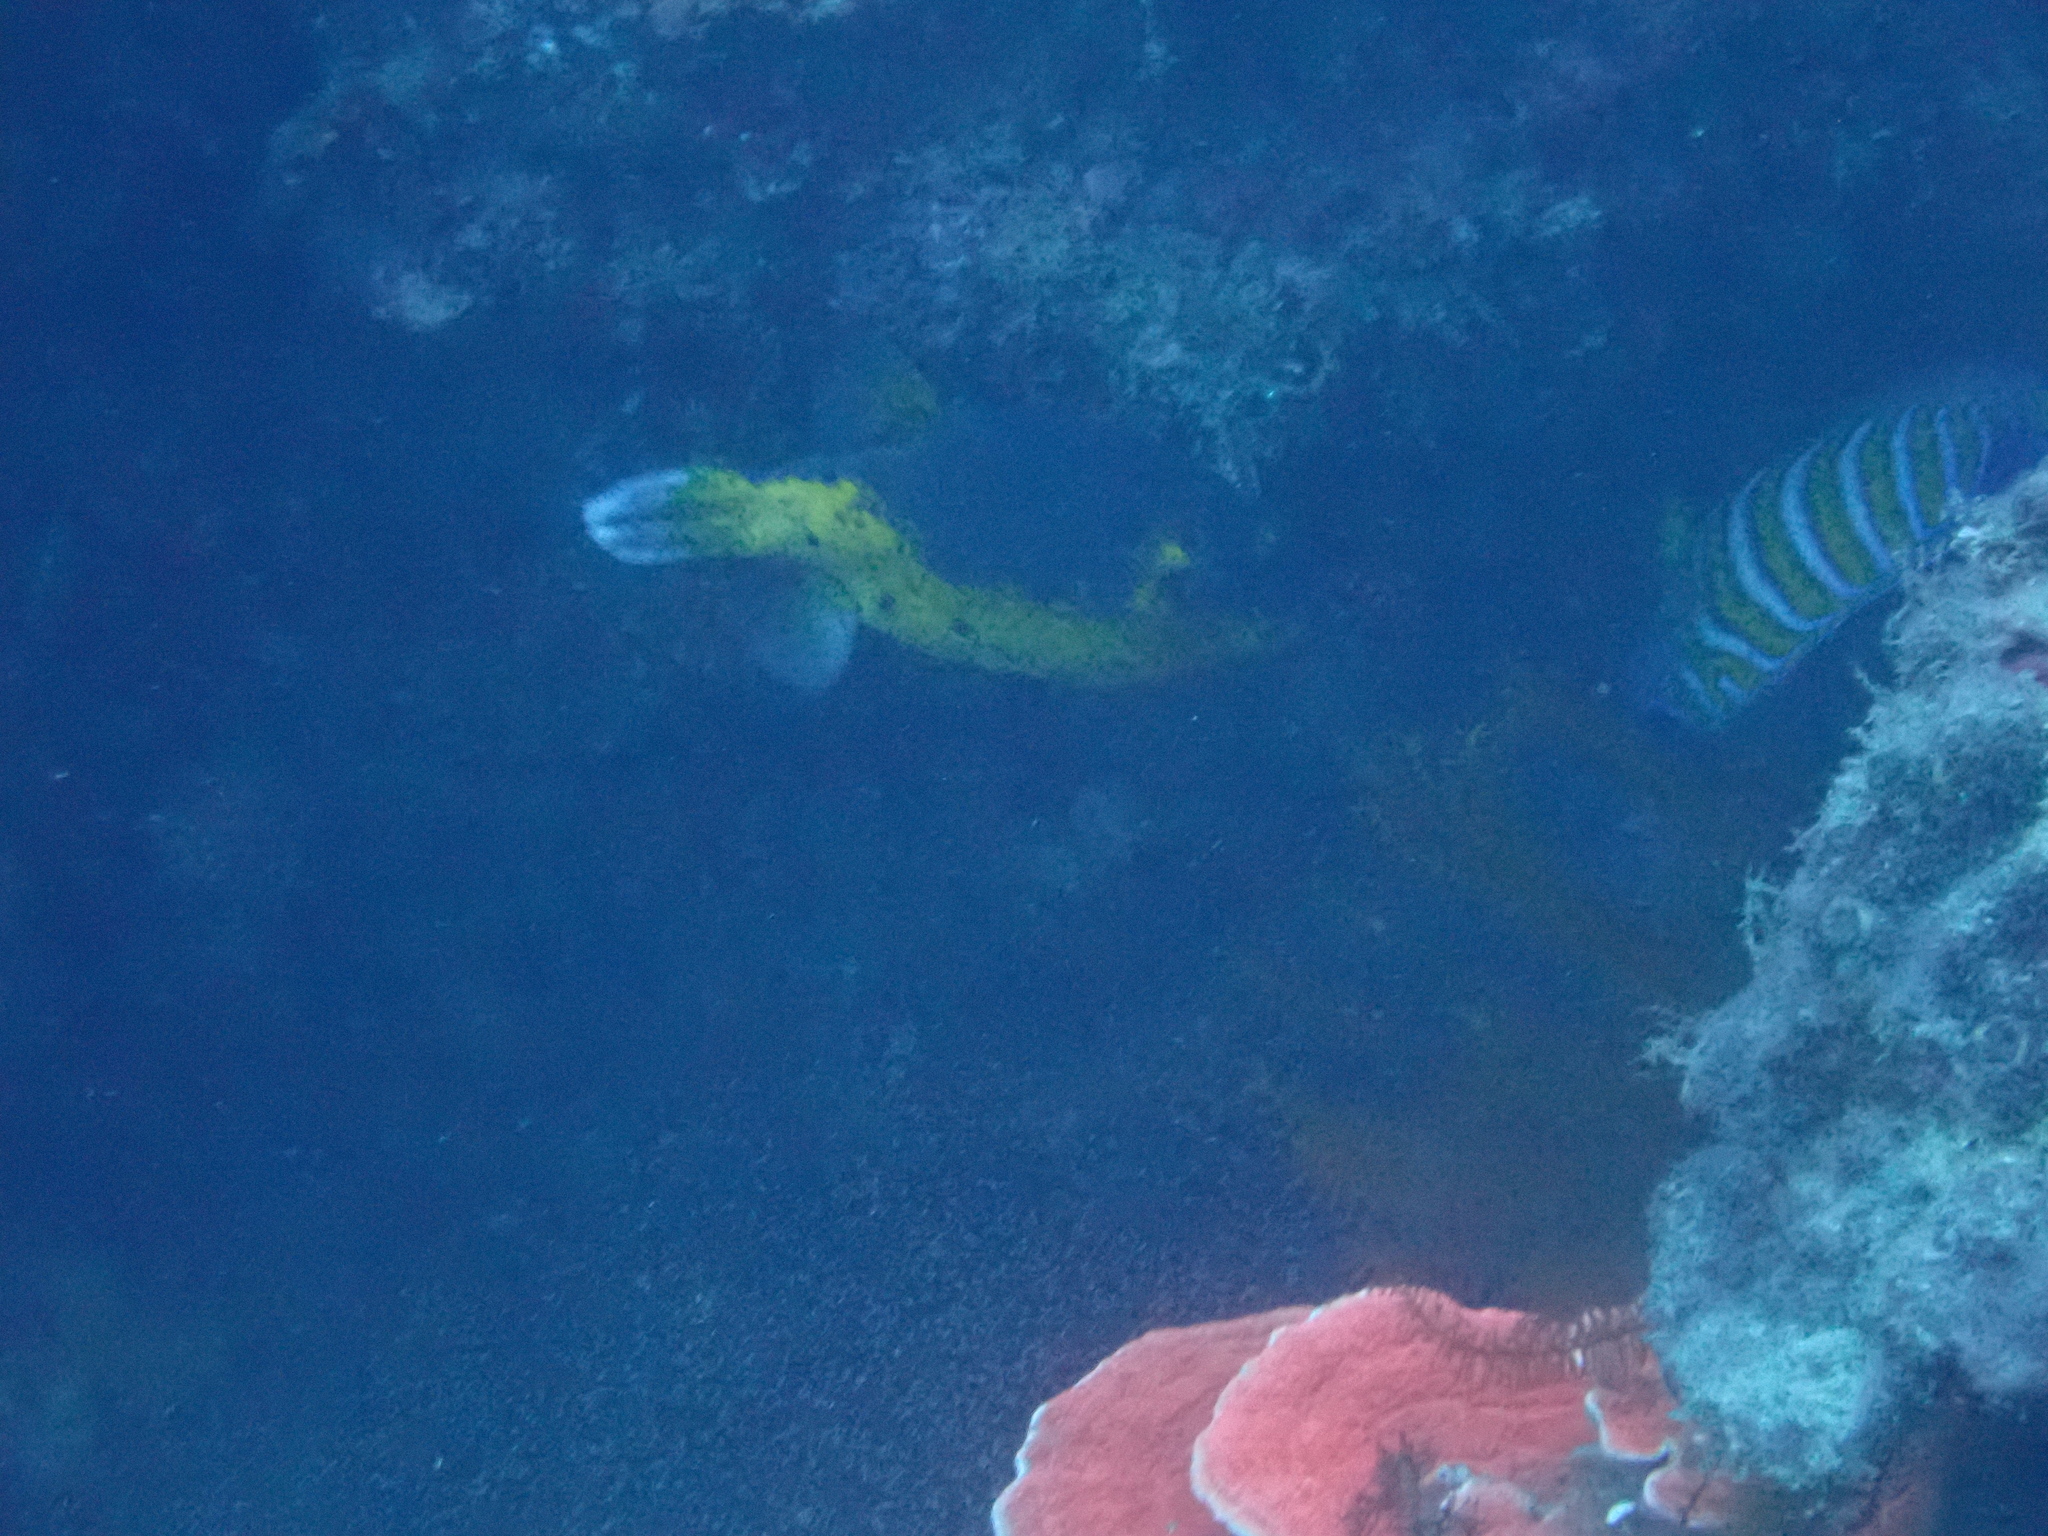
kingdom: Animalia
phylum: Chordata
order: Tetraodontiformes
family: Tetraodontidae
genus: Arothron
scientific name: Arothron nigropunctatus
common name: Black spotted blow fish
